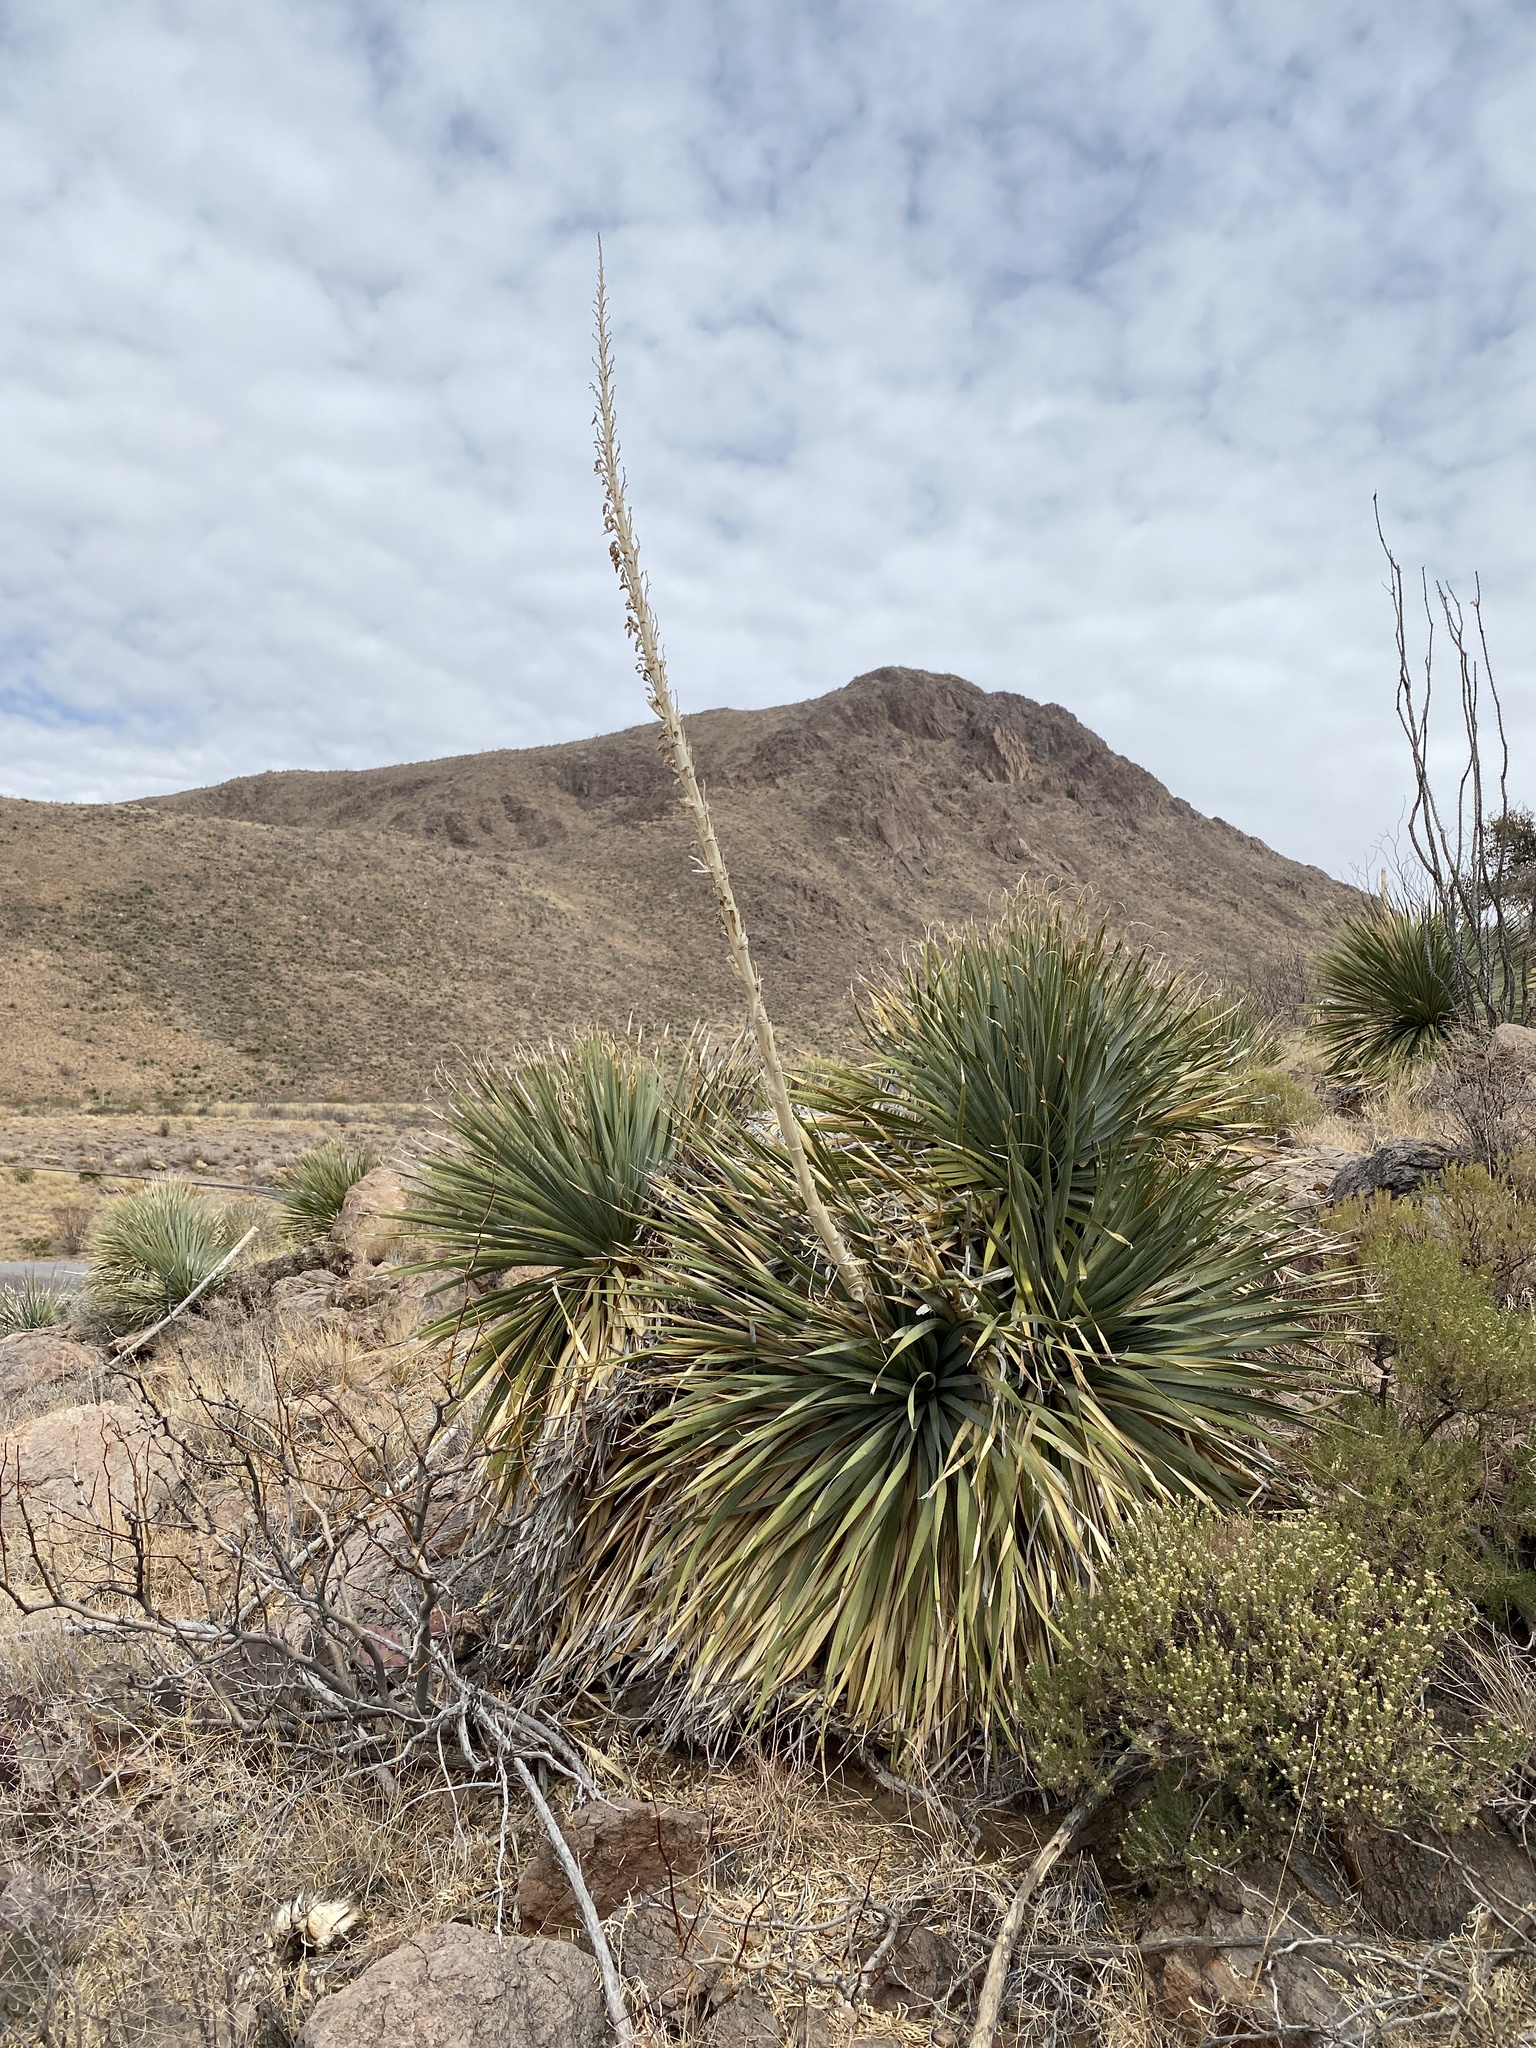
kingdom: Plantae
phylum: Tracheophyta
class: Liliopsida
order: Asparagales
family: Asparagaceae
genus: Dasylirion
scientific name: Dasylirion wheeleri
